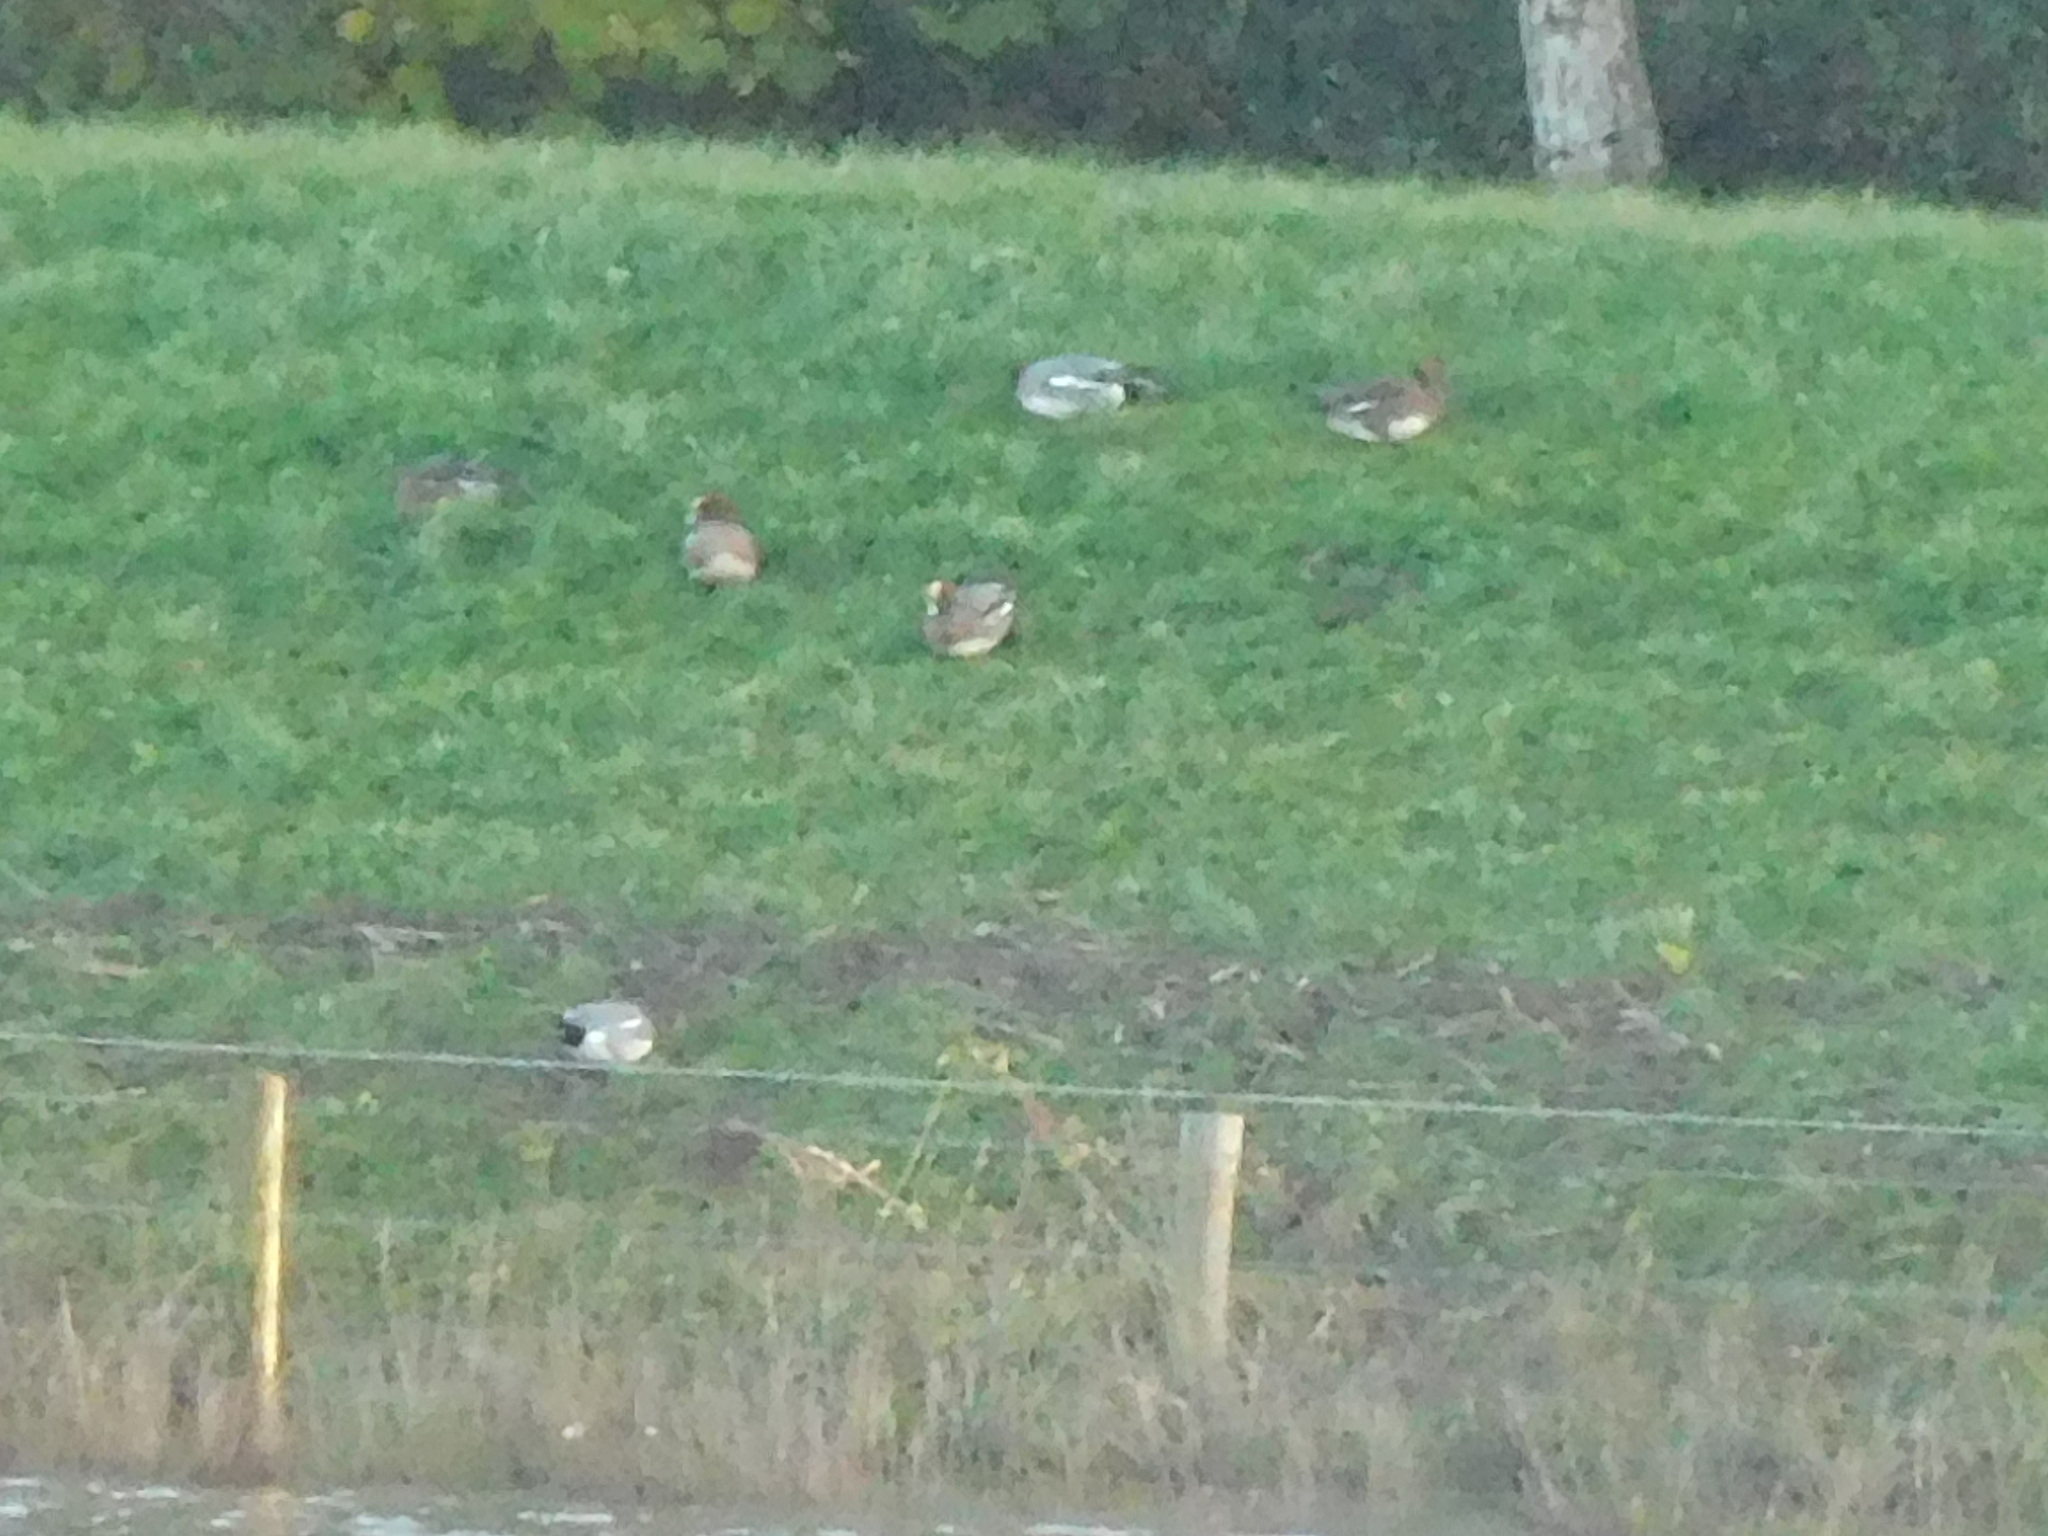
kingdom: Animalia
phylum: Chordata
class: Aves
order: Anseriformes
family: Anatidae
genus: Mareca
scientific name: Mareca penelope
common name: Eurasian wigeon
